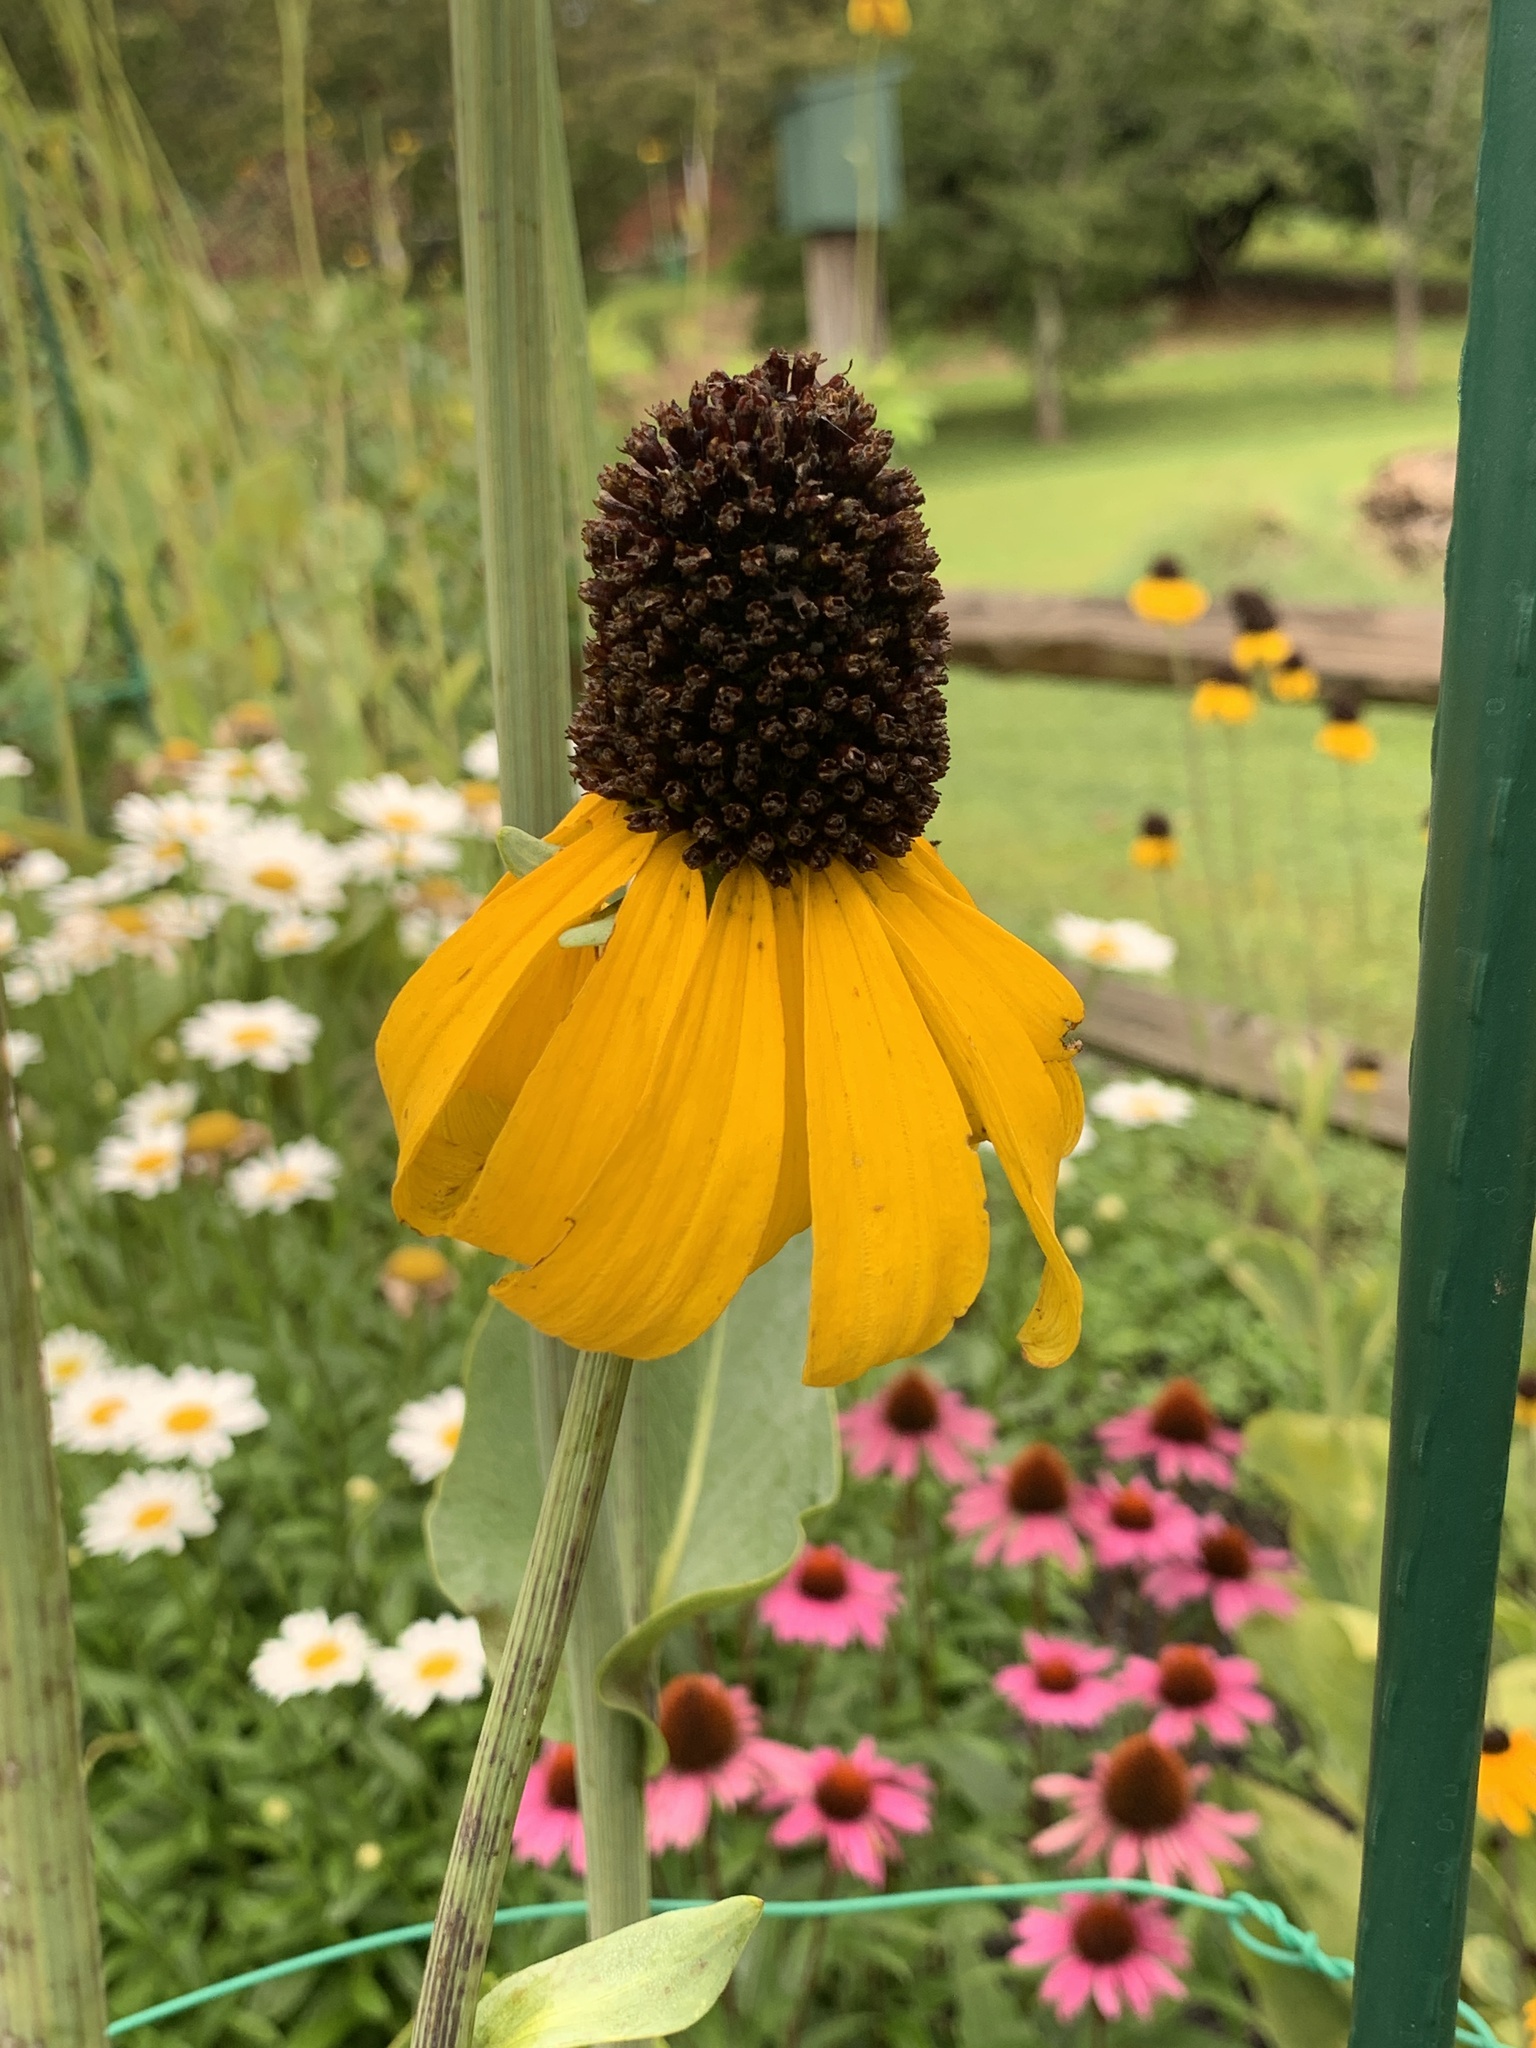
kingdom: Plantae
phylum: Tracheophyta
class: Magnoliopsida
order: Asterales
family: Asteraceae
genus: Rudbeckia
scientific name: Rudbeckia maxima
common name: Cabbage coneflower
